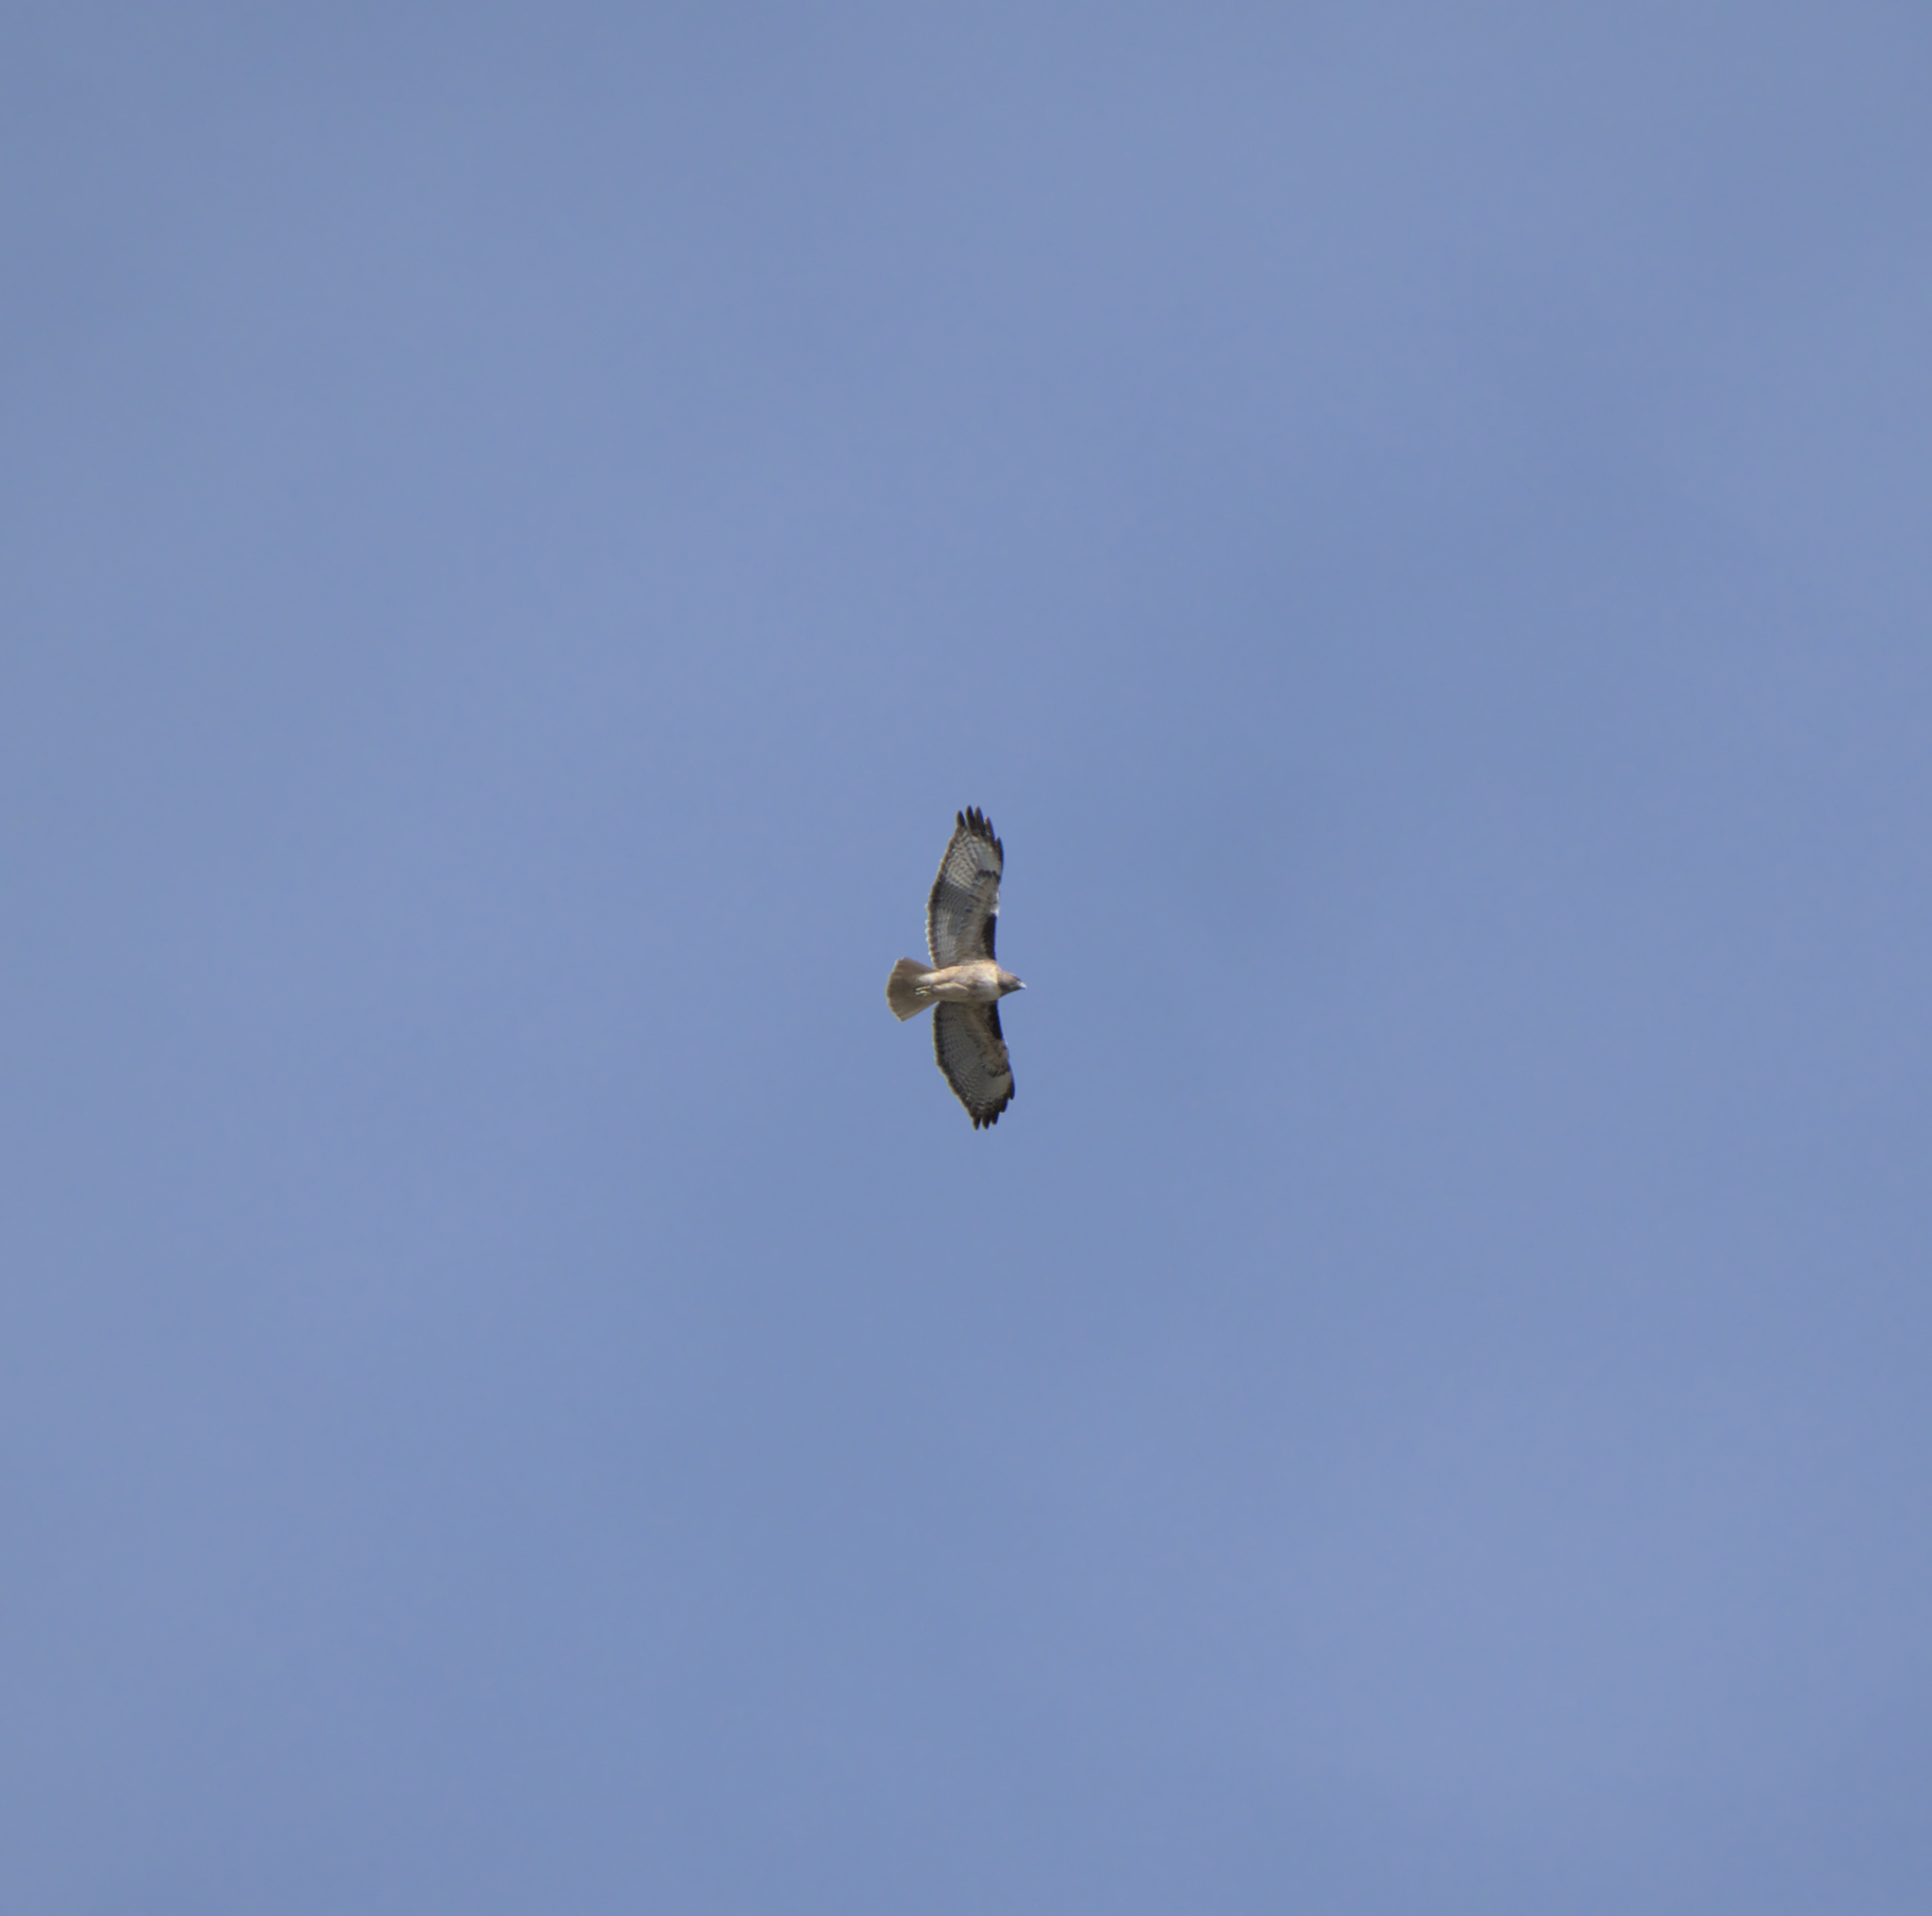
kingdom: Animalia
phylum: Chordata
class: Aves
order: Accipitriformes
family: Accipitridae
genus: Buteo
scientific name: Buteo jamaicensis
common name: Red-tailed hawk
